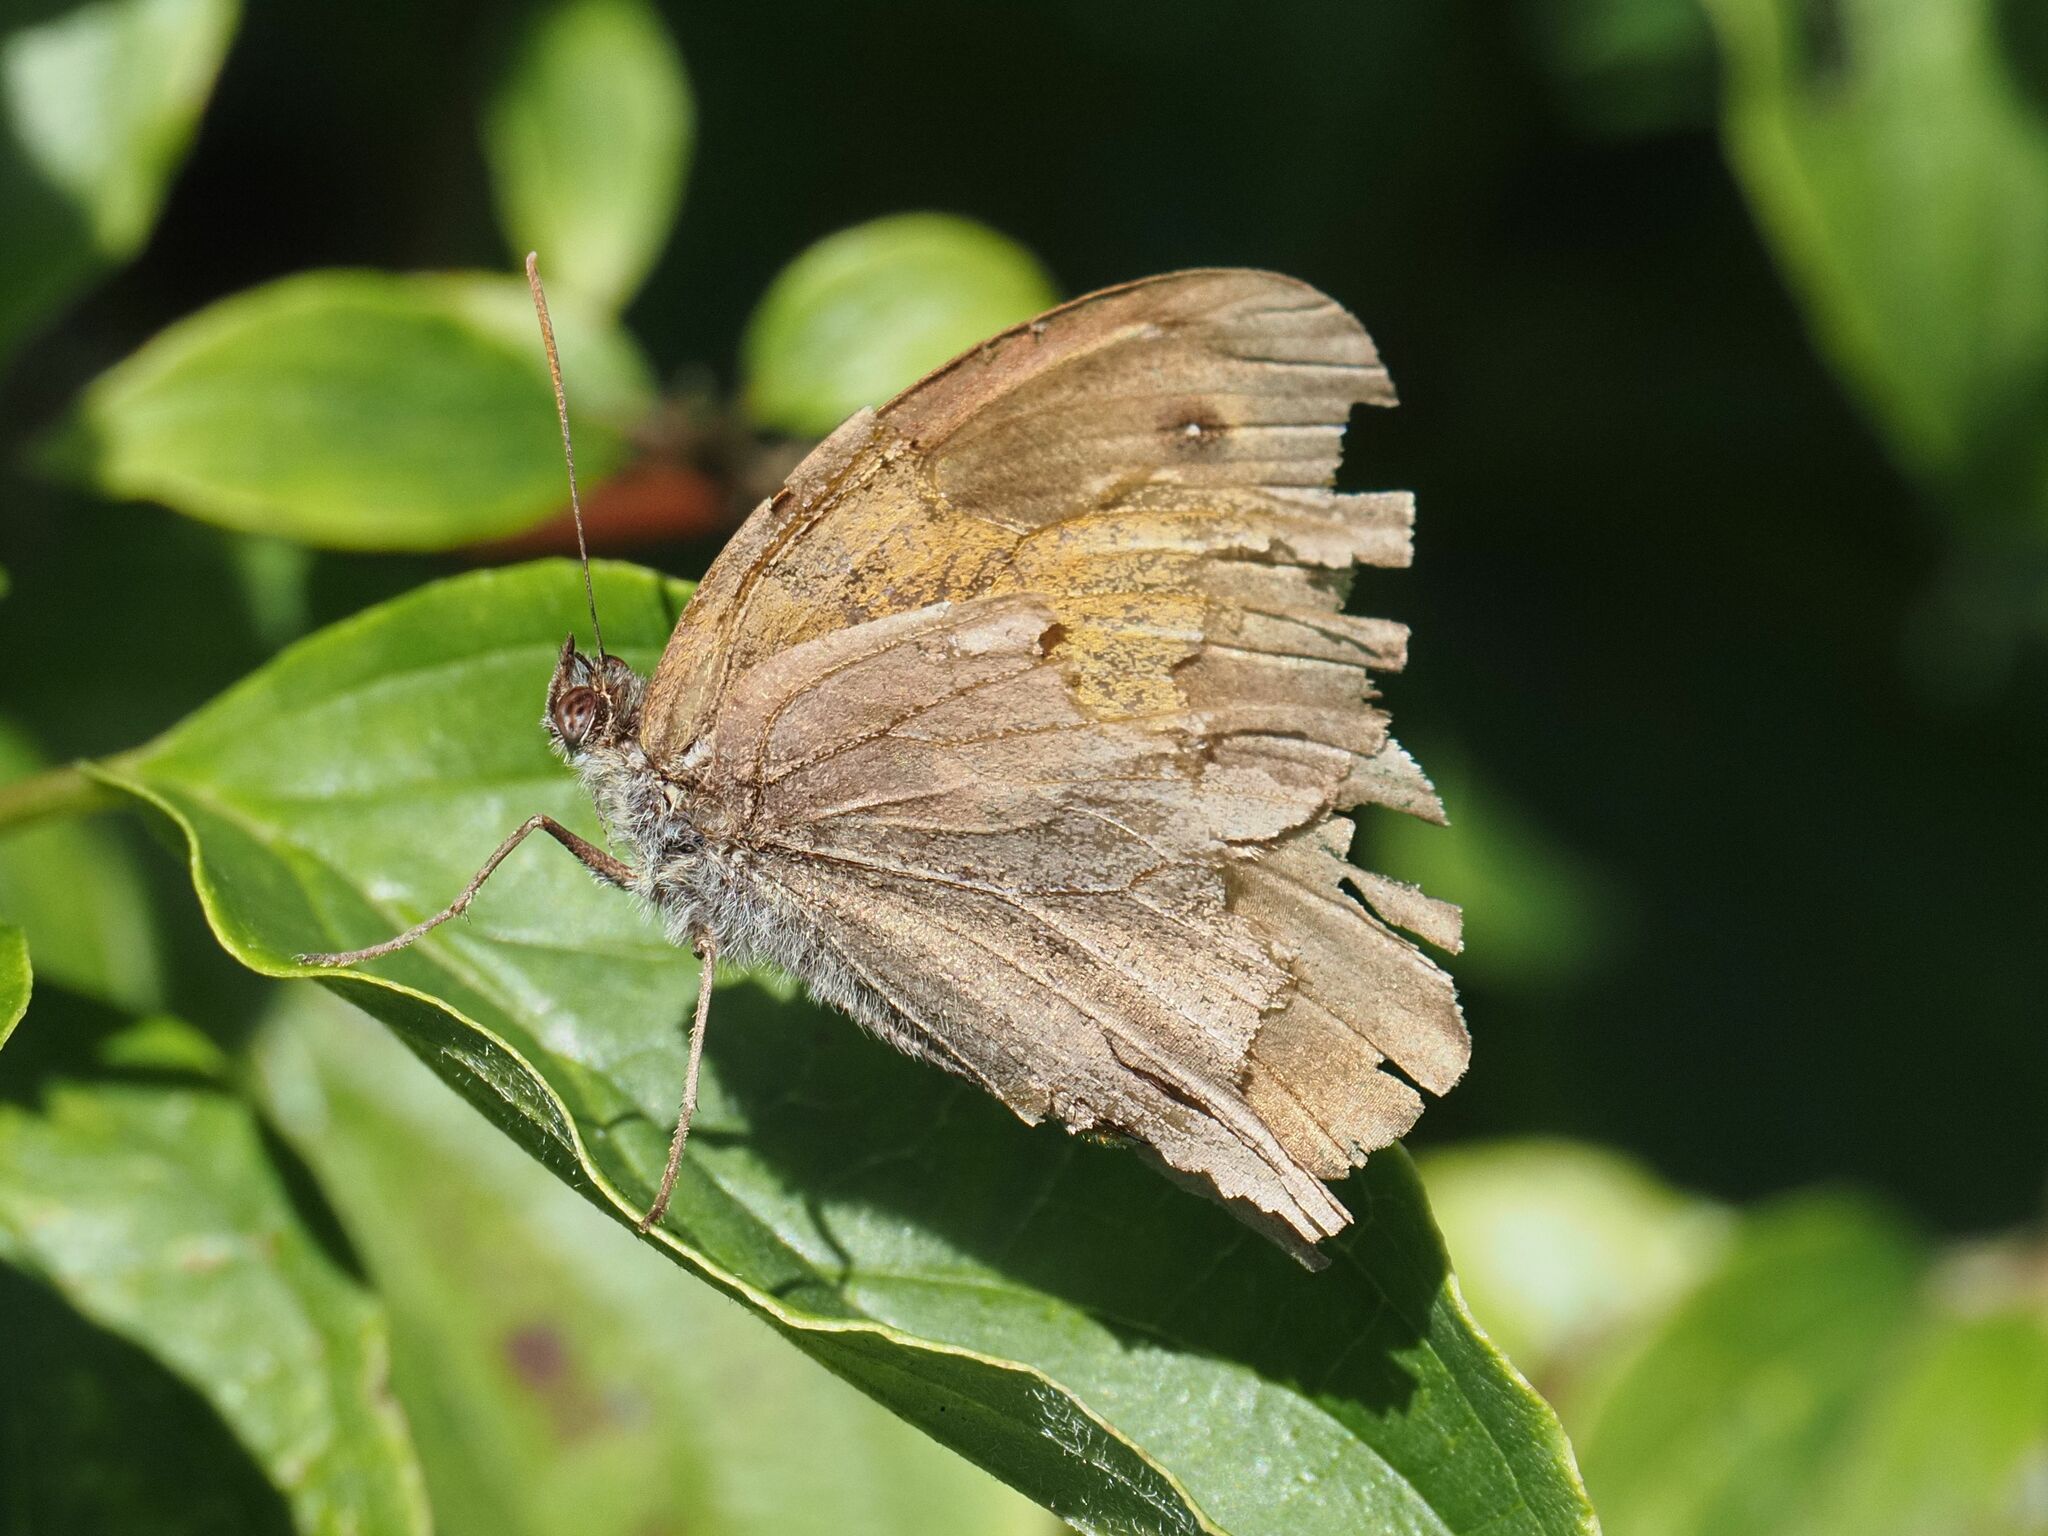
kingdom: Animalia
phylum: Arthropoda
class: Insecta
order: Lepidoptera
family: Nymphalidae
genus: Maniola
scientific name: Maniola jurtina
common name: Meadow brown
